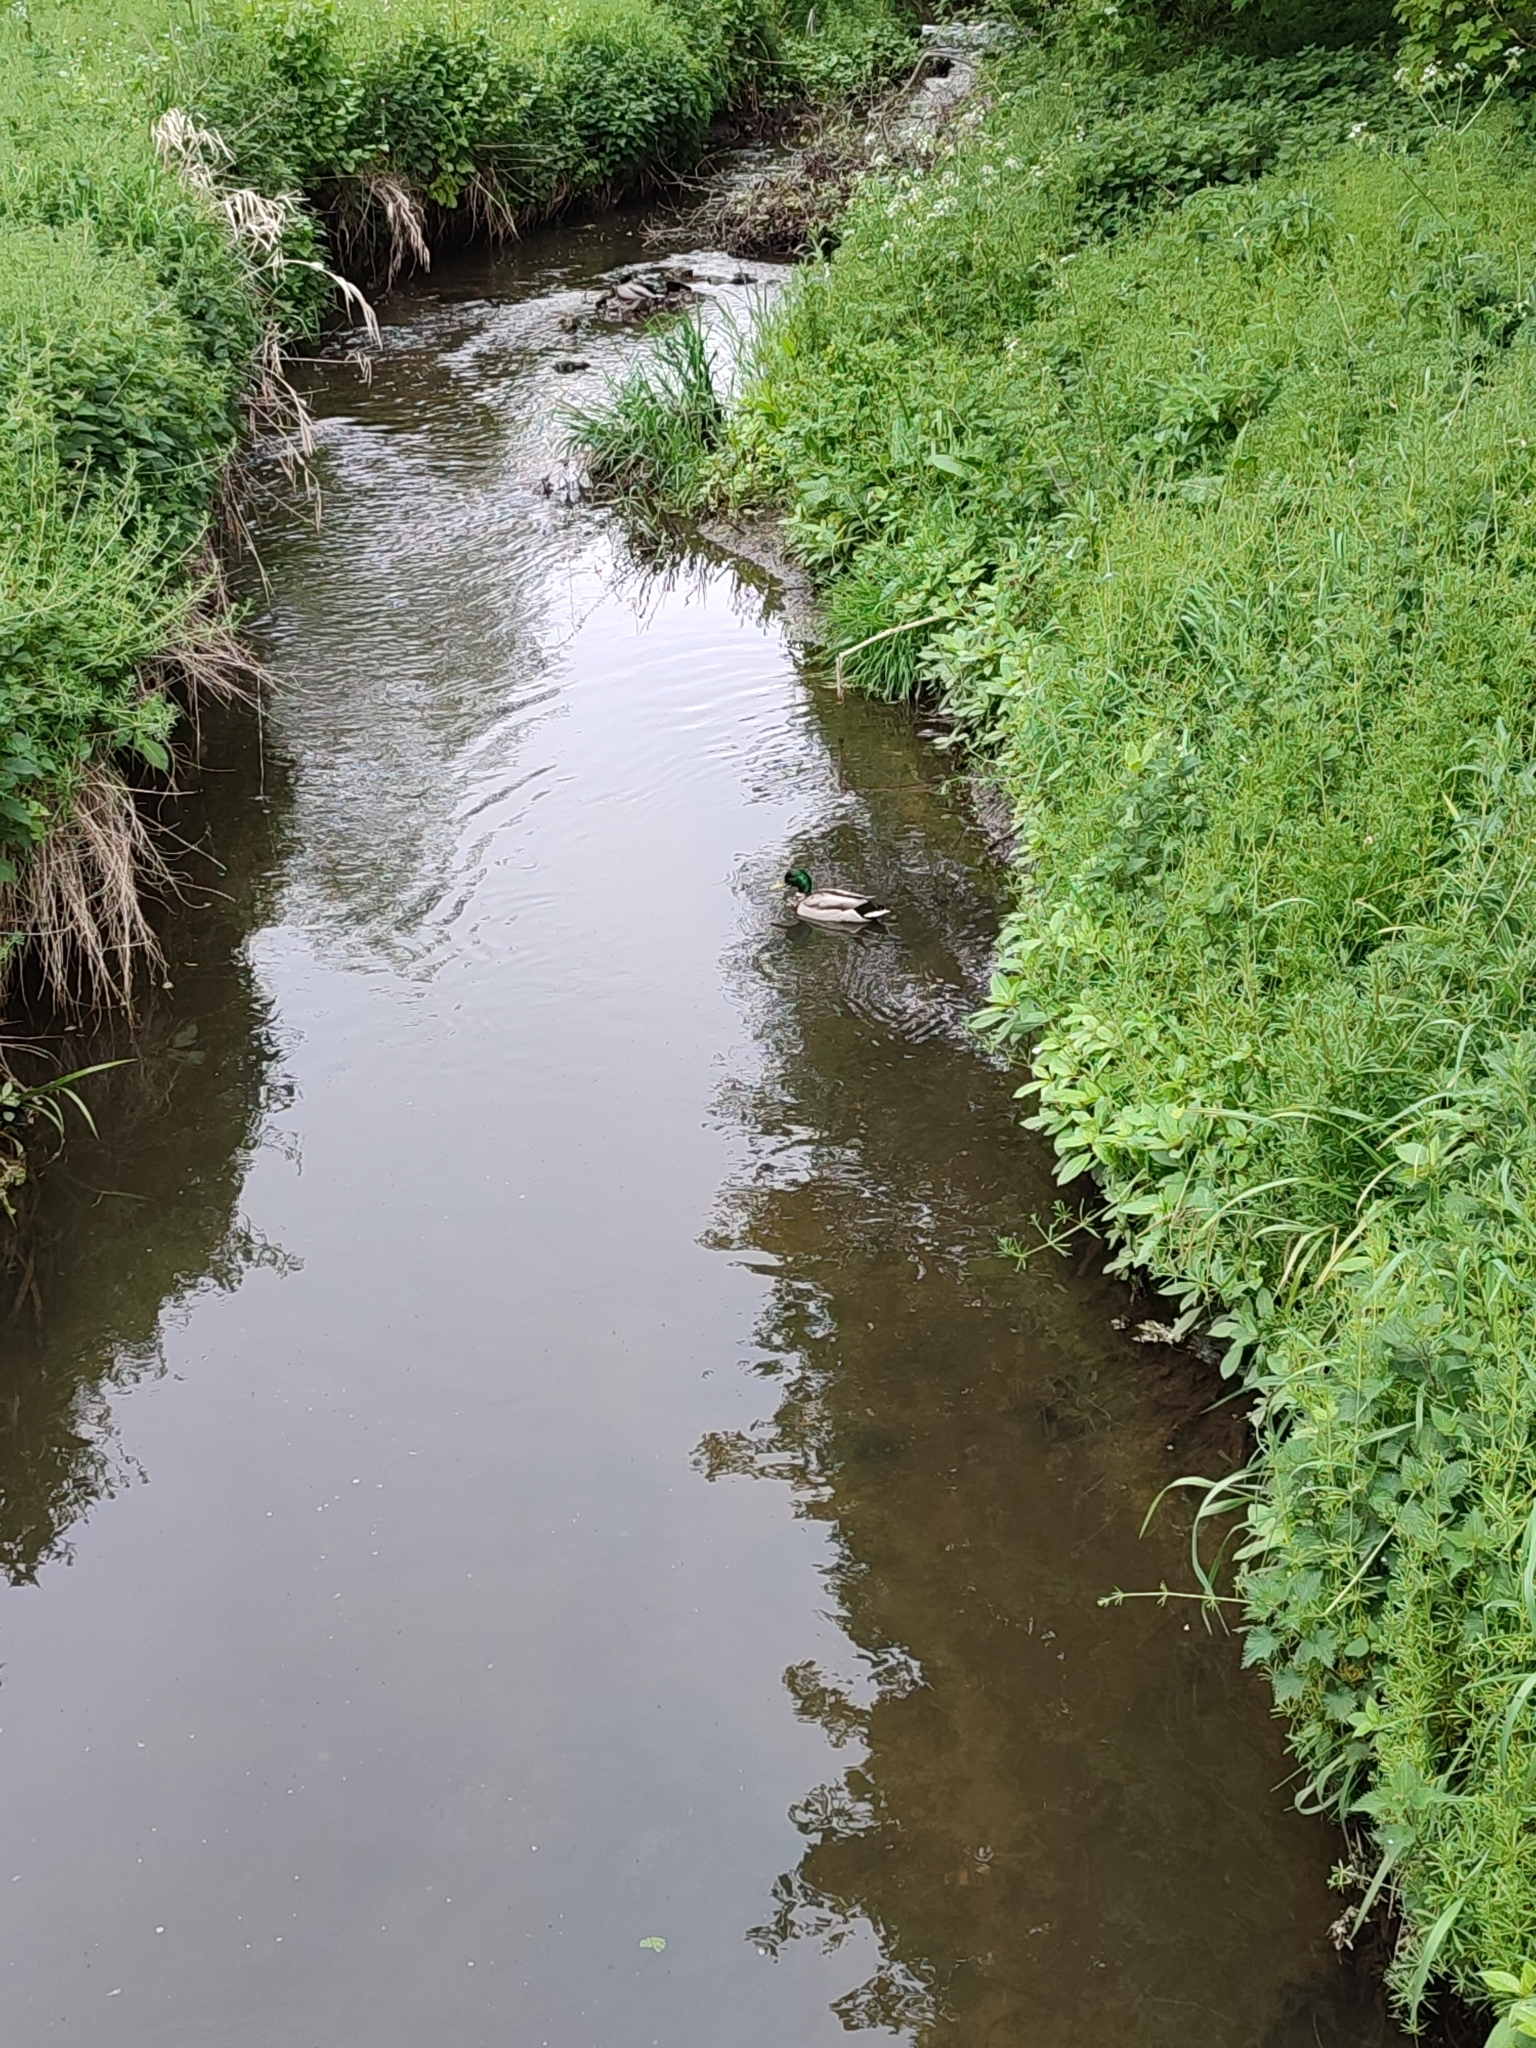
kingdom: Animalia
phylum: Chordata
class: Aves
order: Anseriformes
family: Anatidae
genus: Anas
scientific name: Anas platyrhynchos
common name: Mallard
